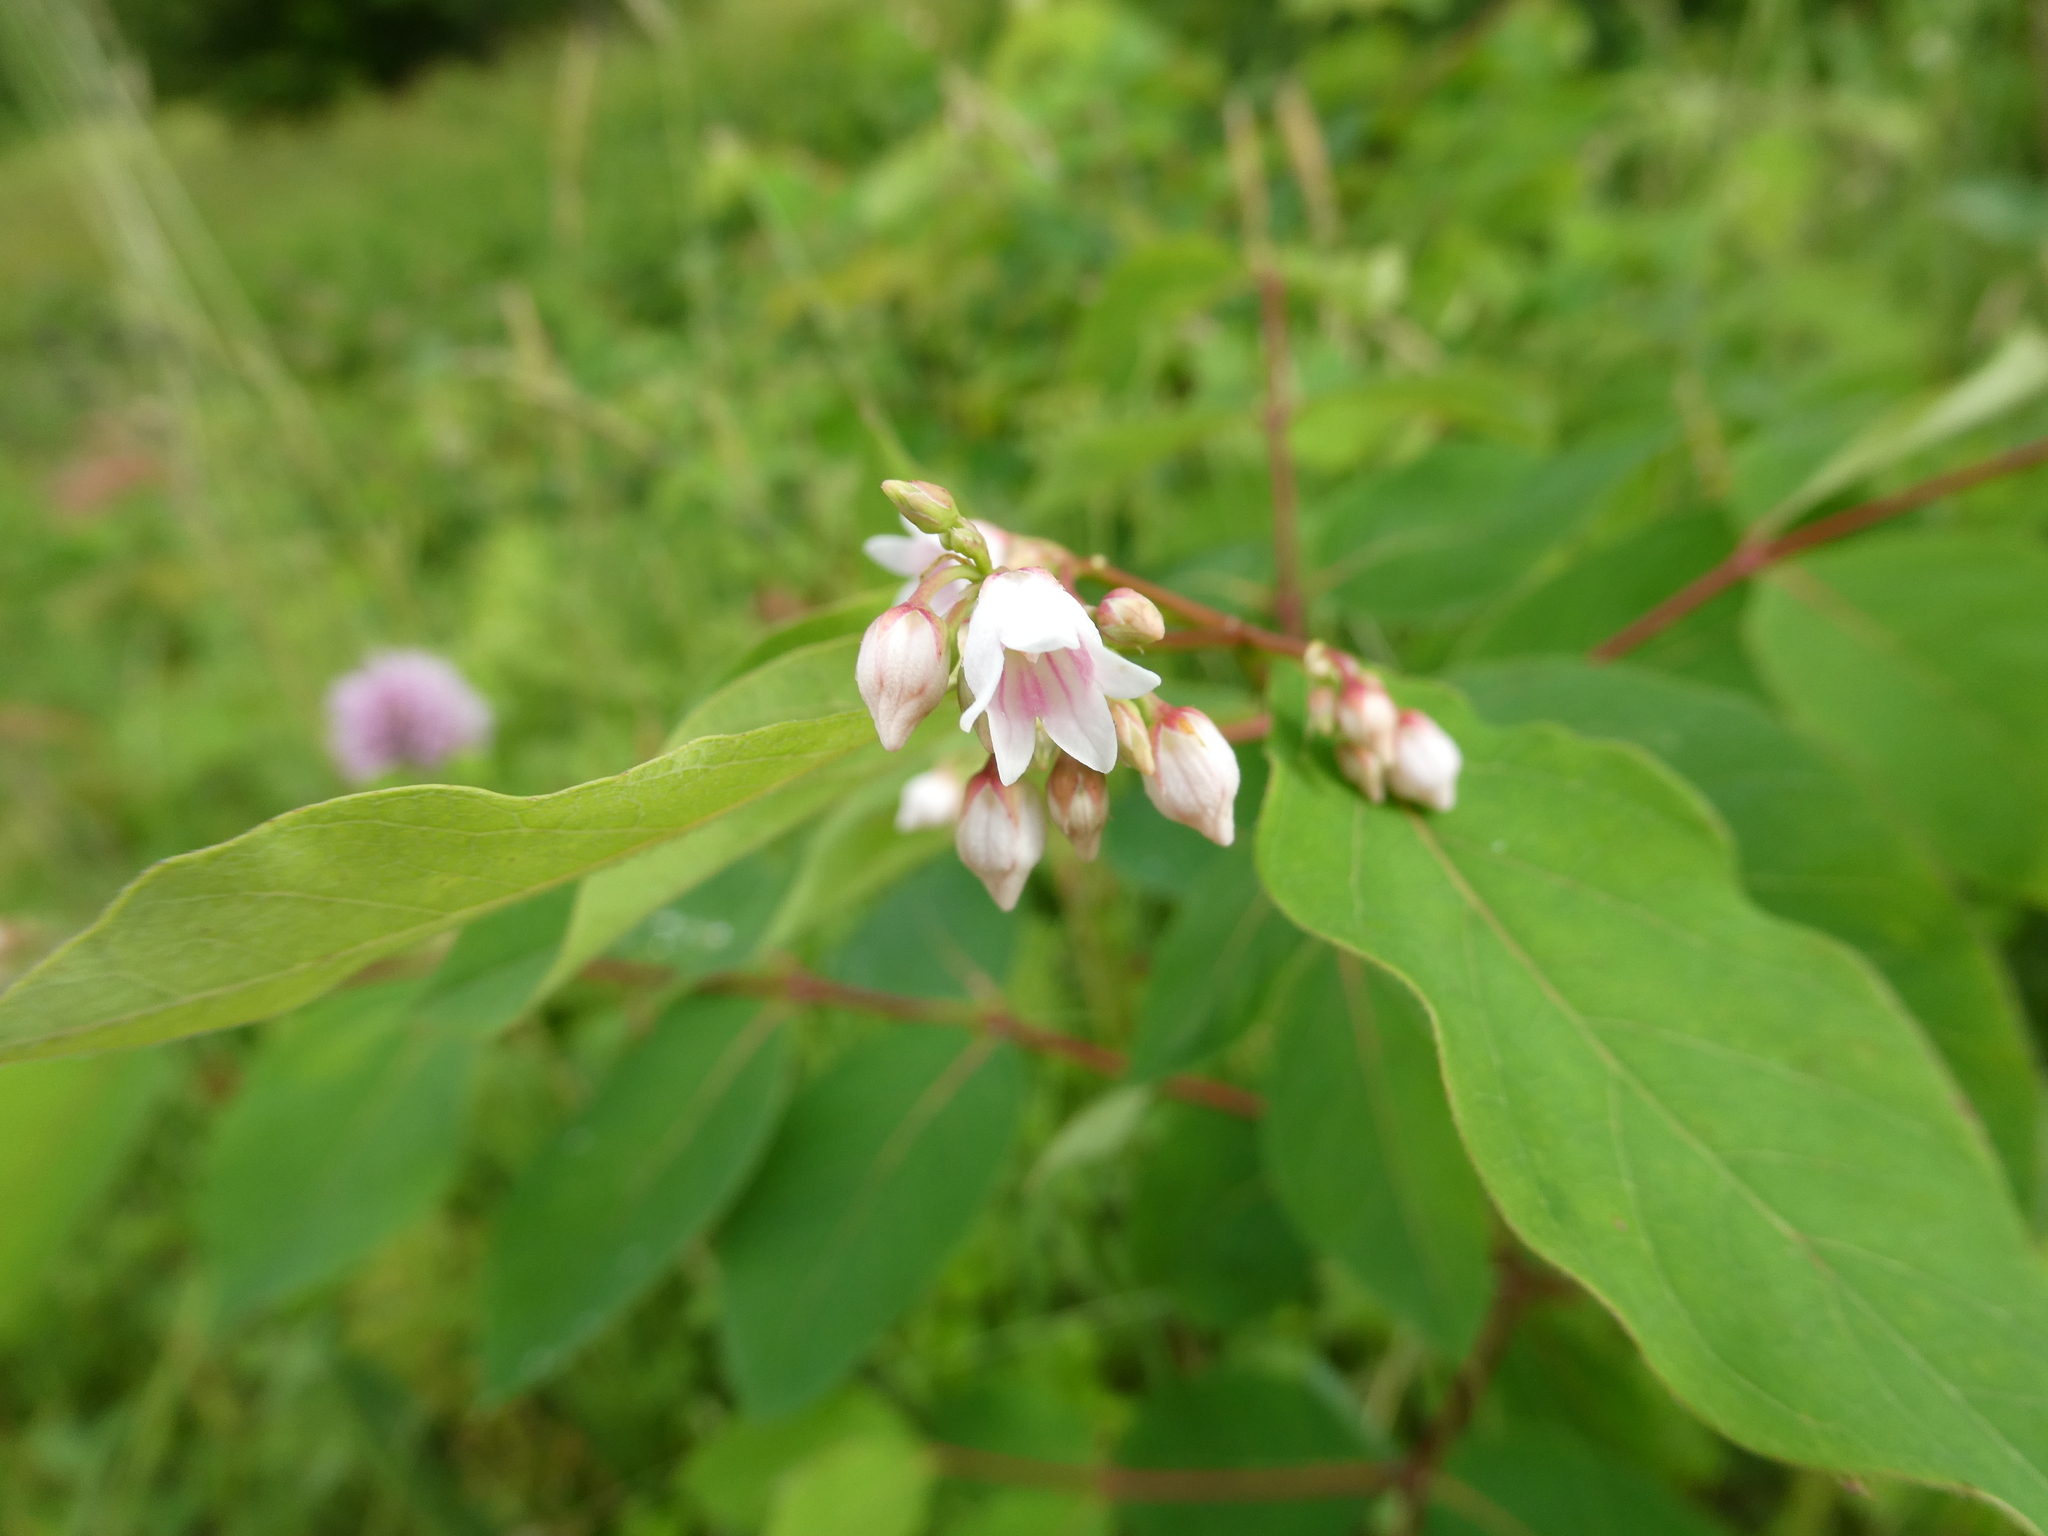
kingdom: Plantae
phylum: Tracheophyta
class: Magnoliopsida
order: Gentianales
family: Apocynaceae
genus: Apocynum
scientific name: Apocynum androsaemifolium
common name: Spreading dogbane
